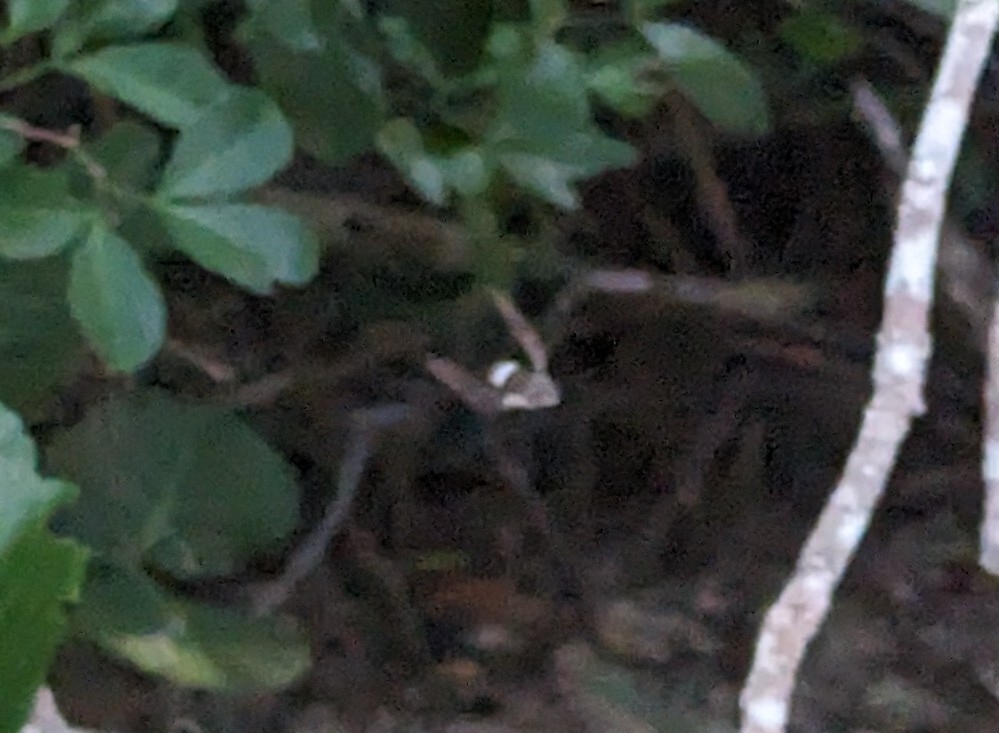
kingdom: Plantae
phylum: Tracheophyta
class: Magnoliopsida
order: Gentianales
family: Rubiaceae
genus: Casasia
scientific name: Casasia clusiifolia
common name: Seven-year apple
